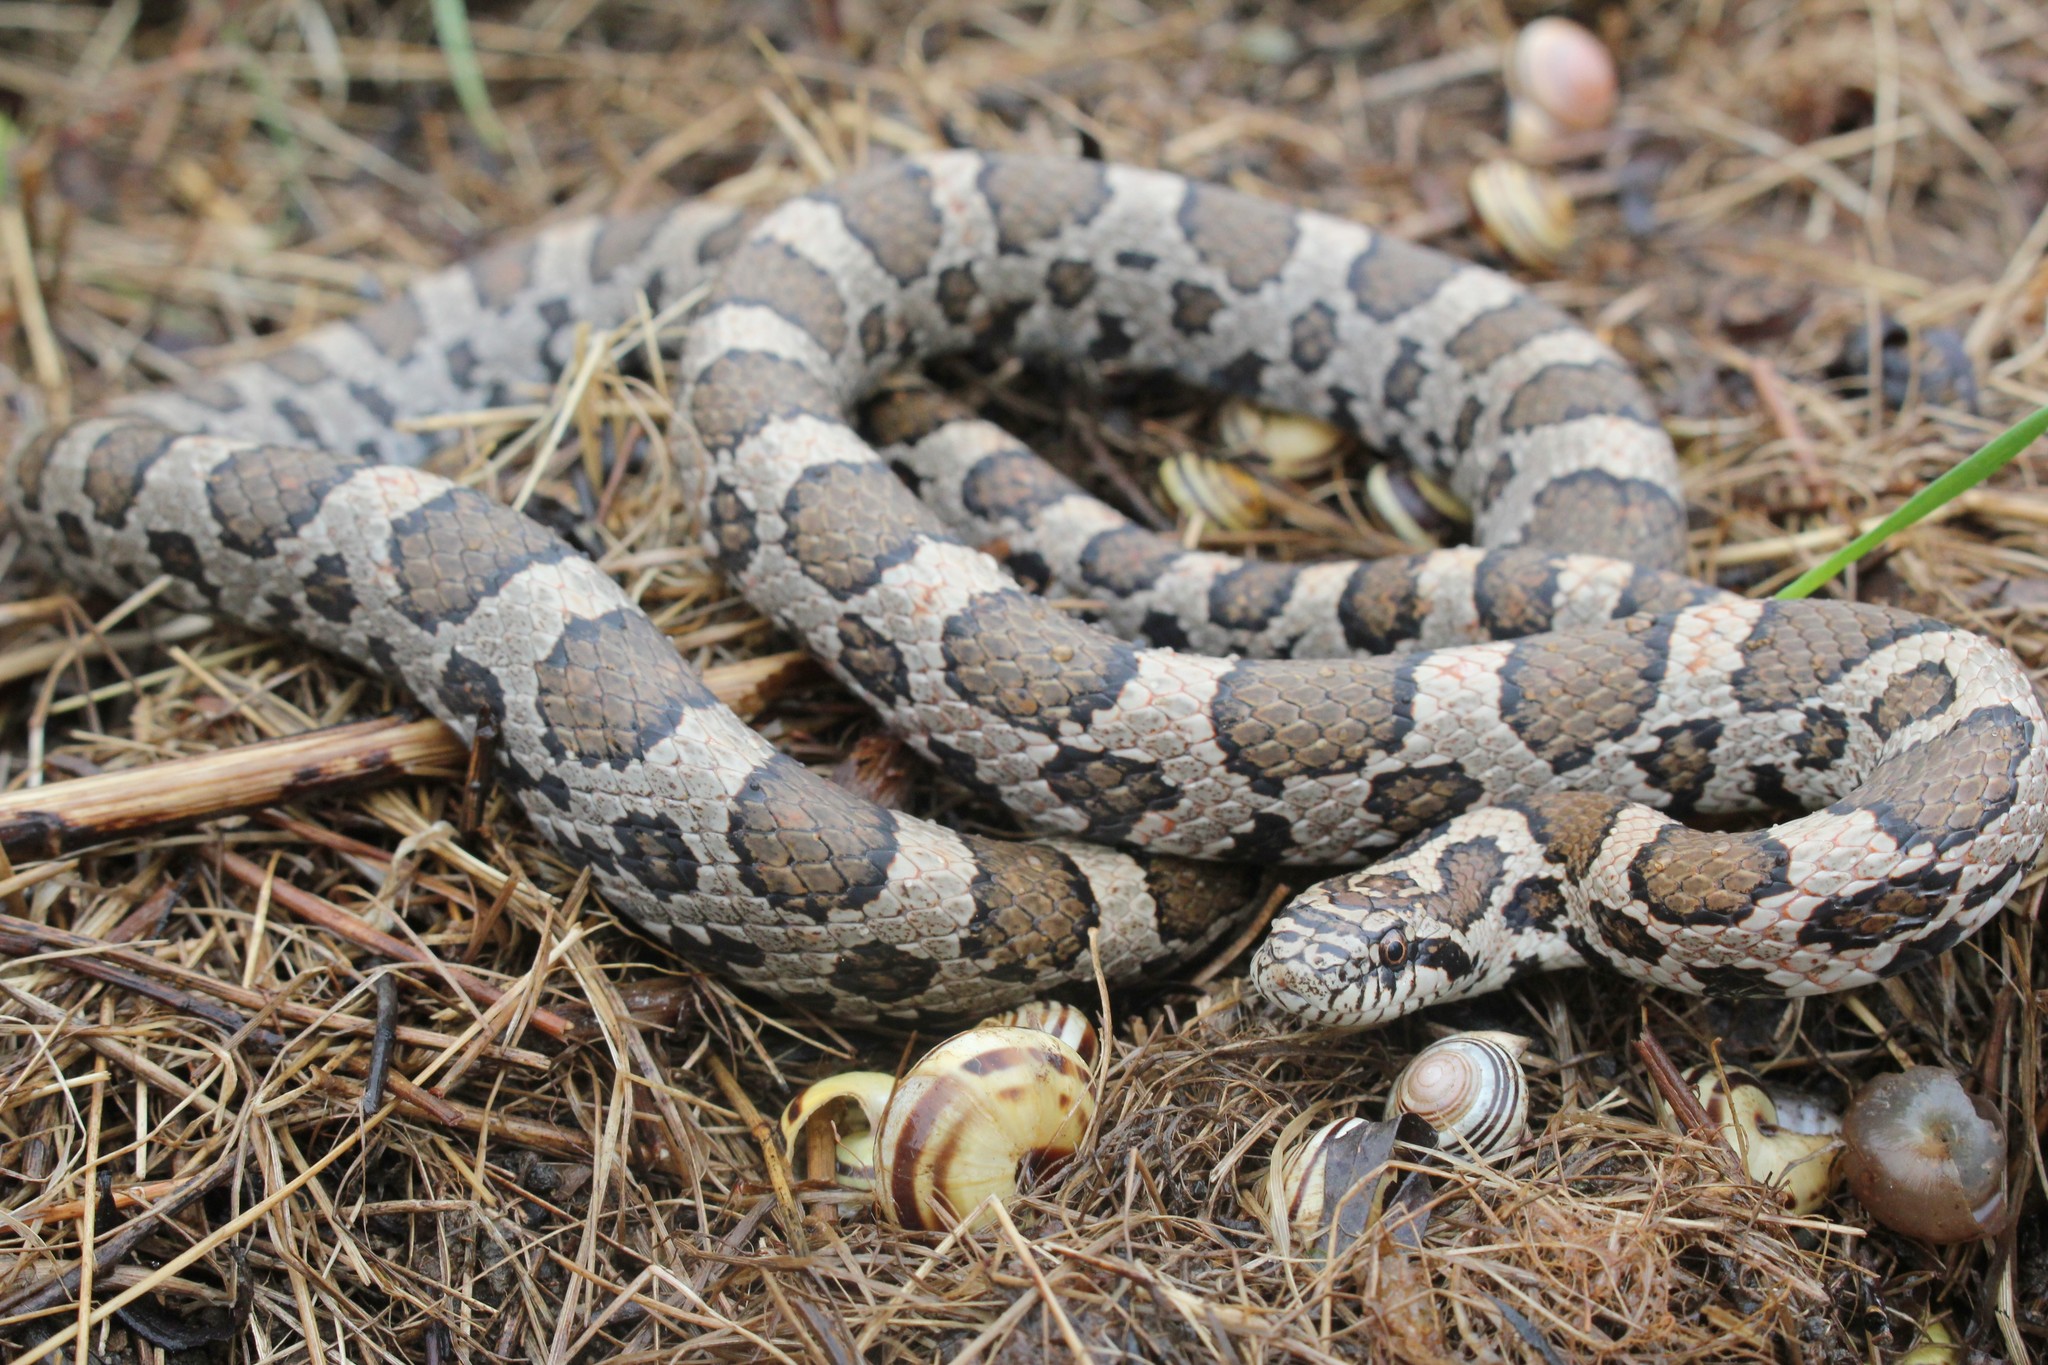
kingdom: Animalia
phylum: Chordata
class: Squamata
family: Colubridae
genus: Lampropeltis
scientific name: Lampropeltis triangulum
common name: Eastern milksnake
